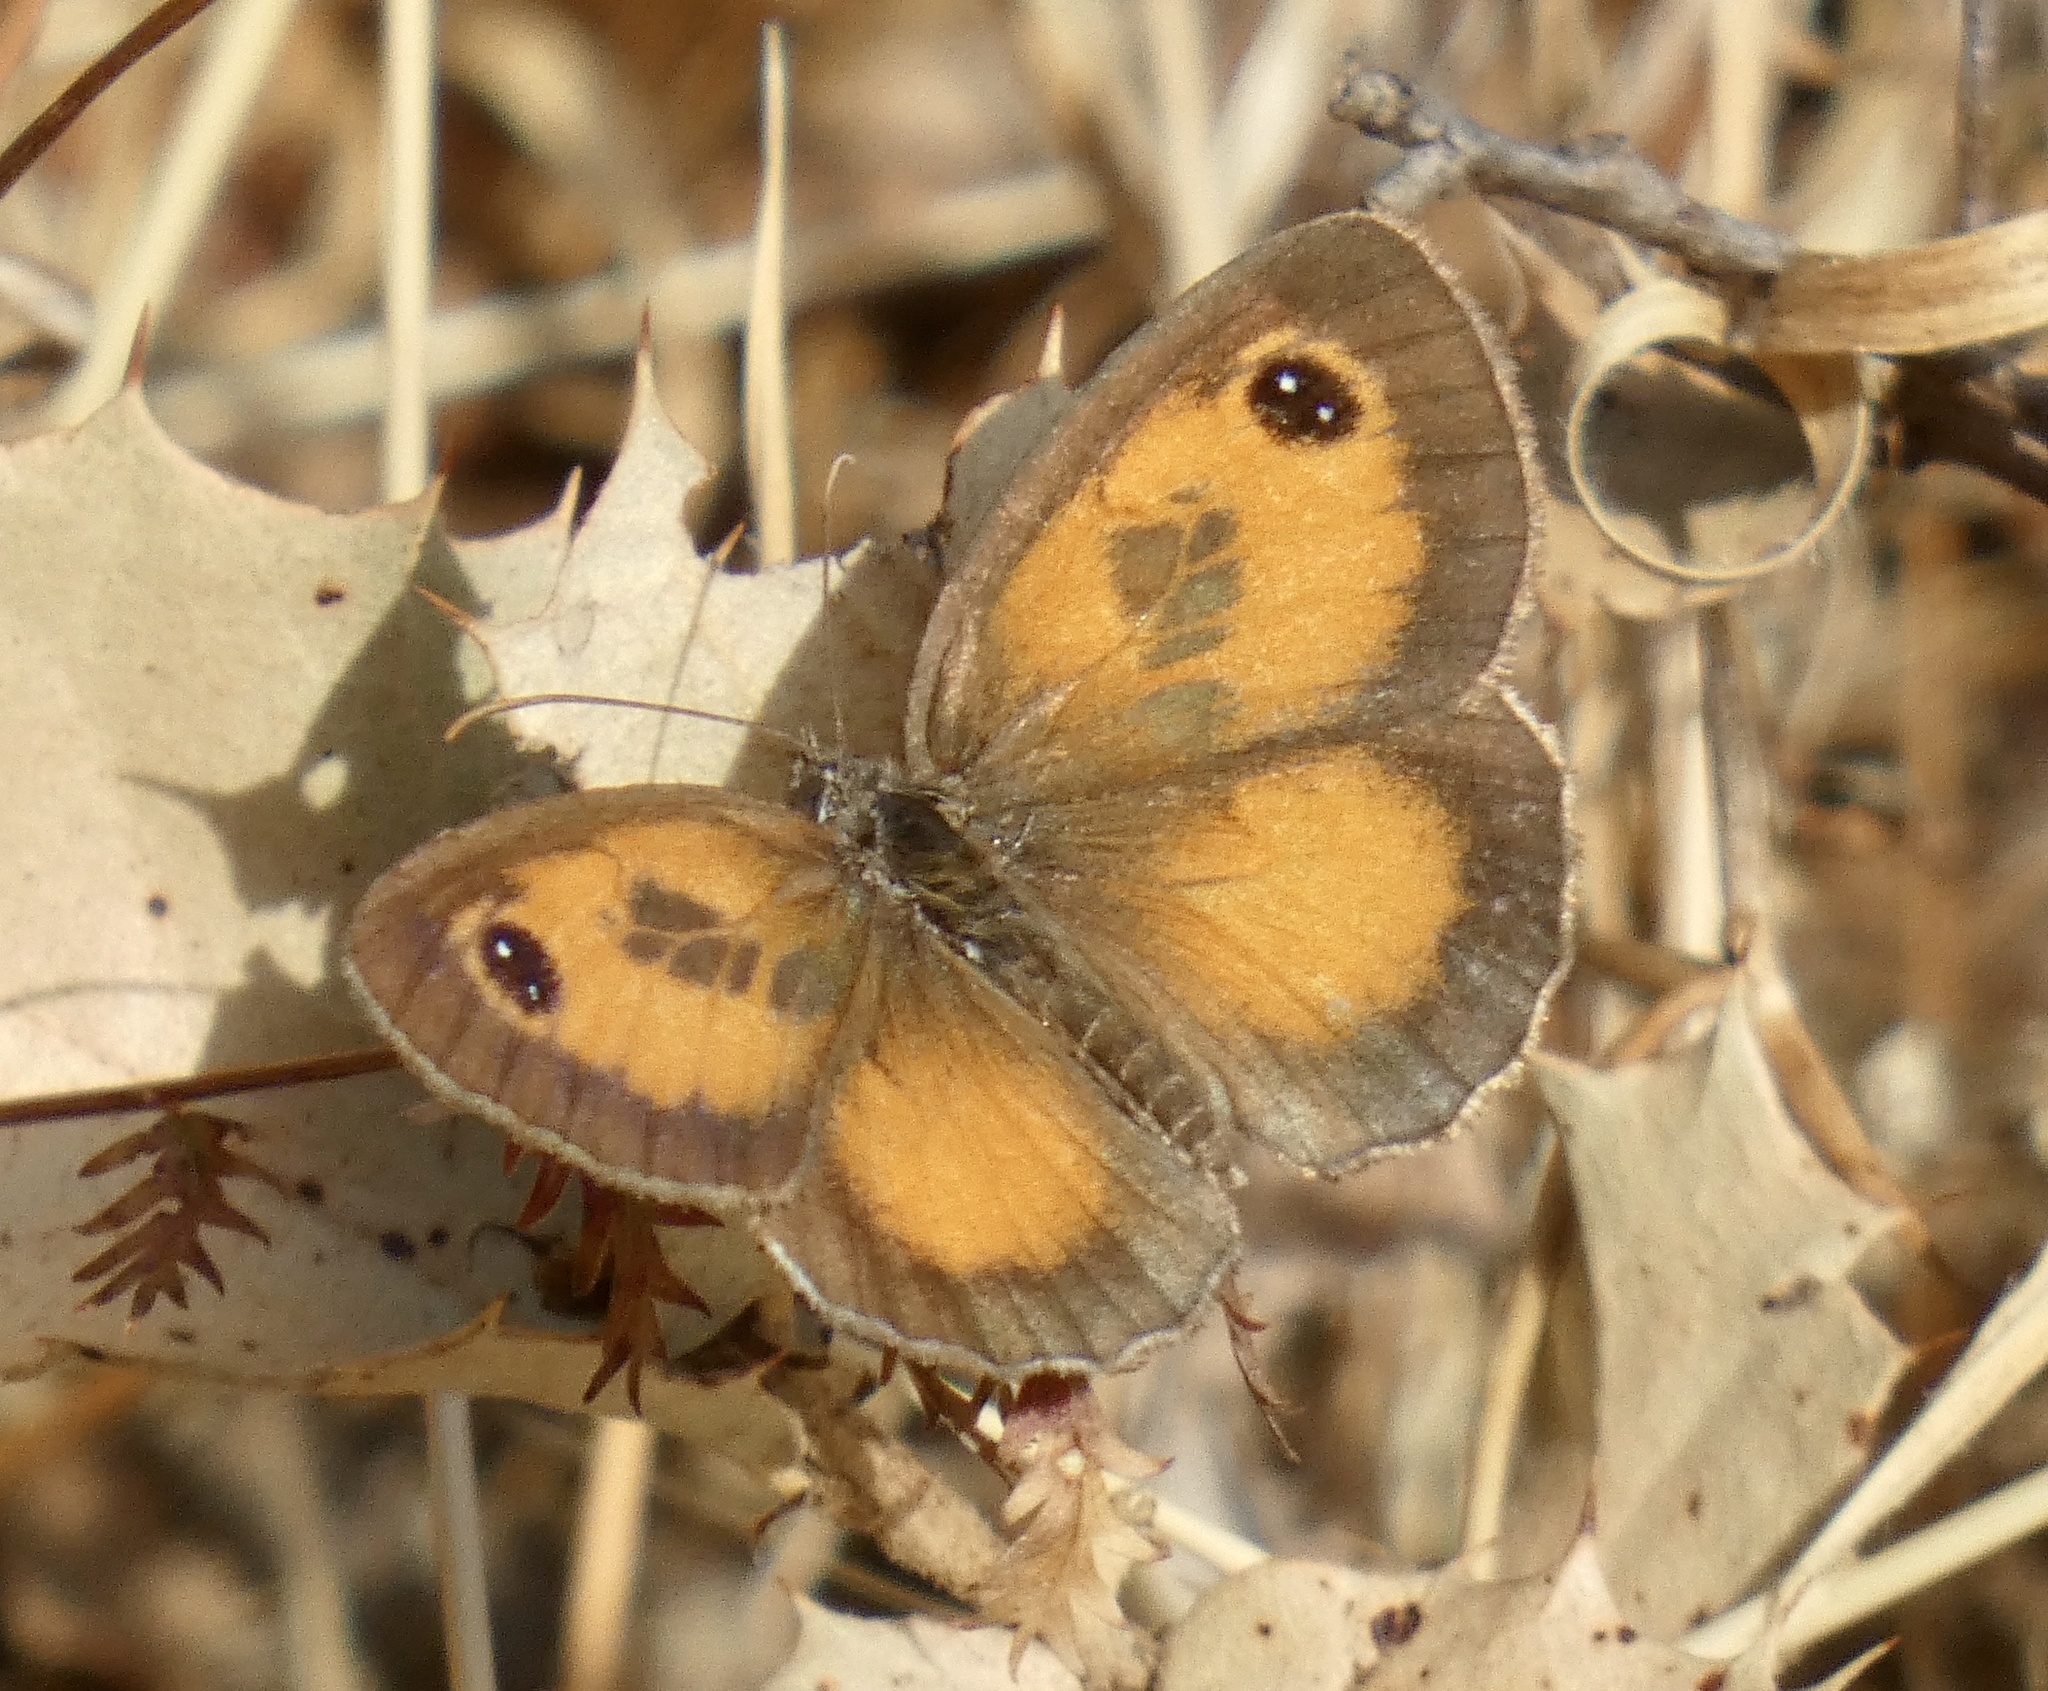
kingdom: Animalia
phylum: Arthropoda
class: Insecta
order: Lepidoptera
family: Nymphalidae
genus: Pyronia
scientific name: Pyronia cecilia
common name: Southern gatekeeper
